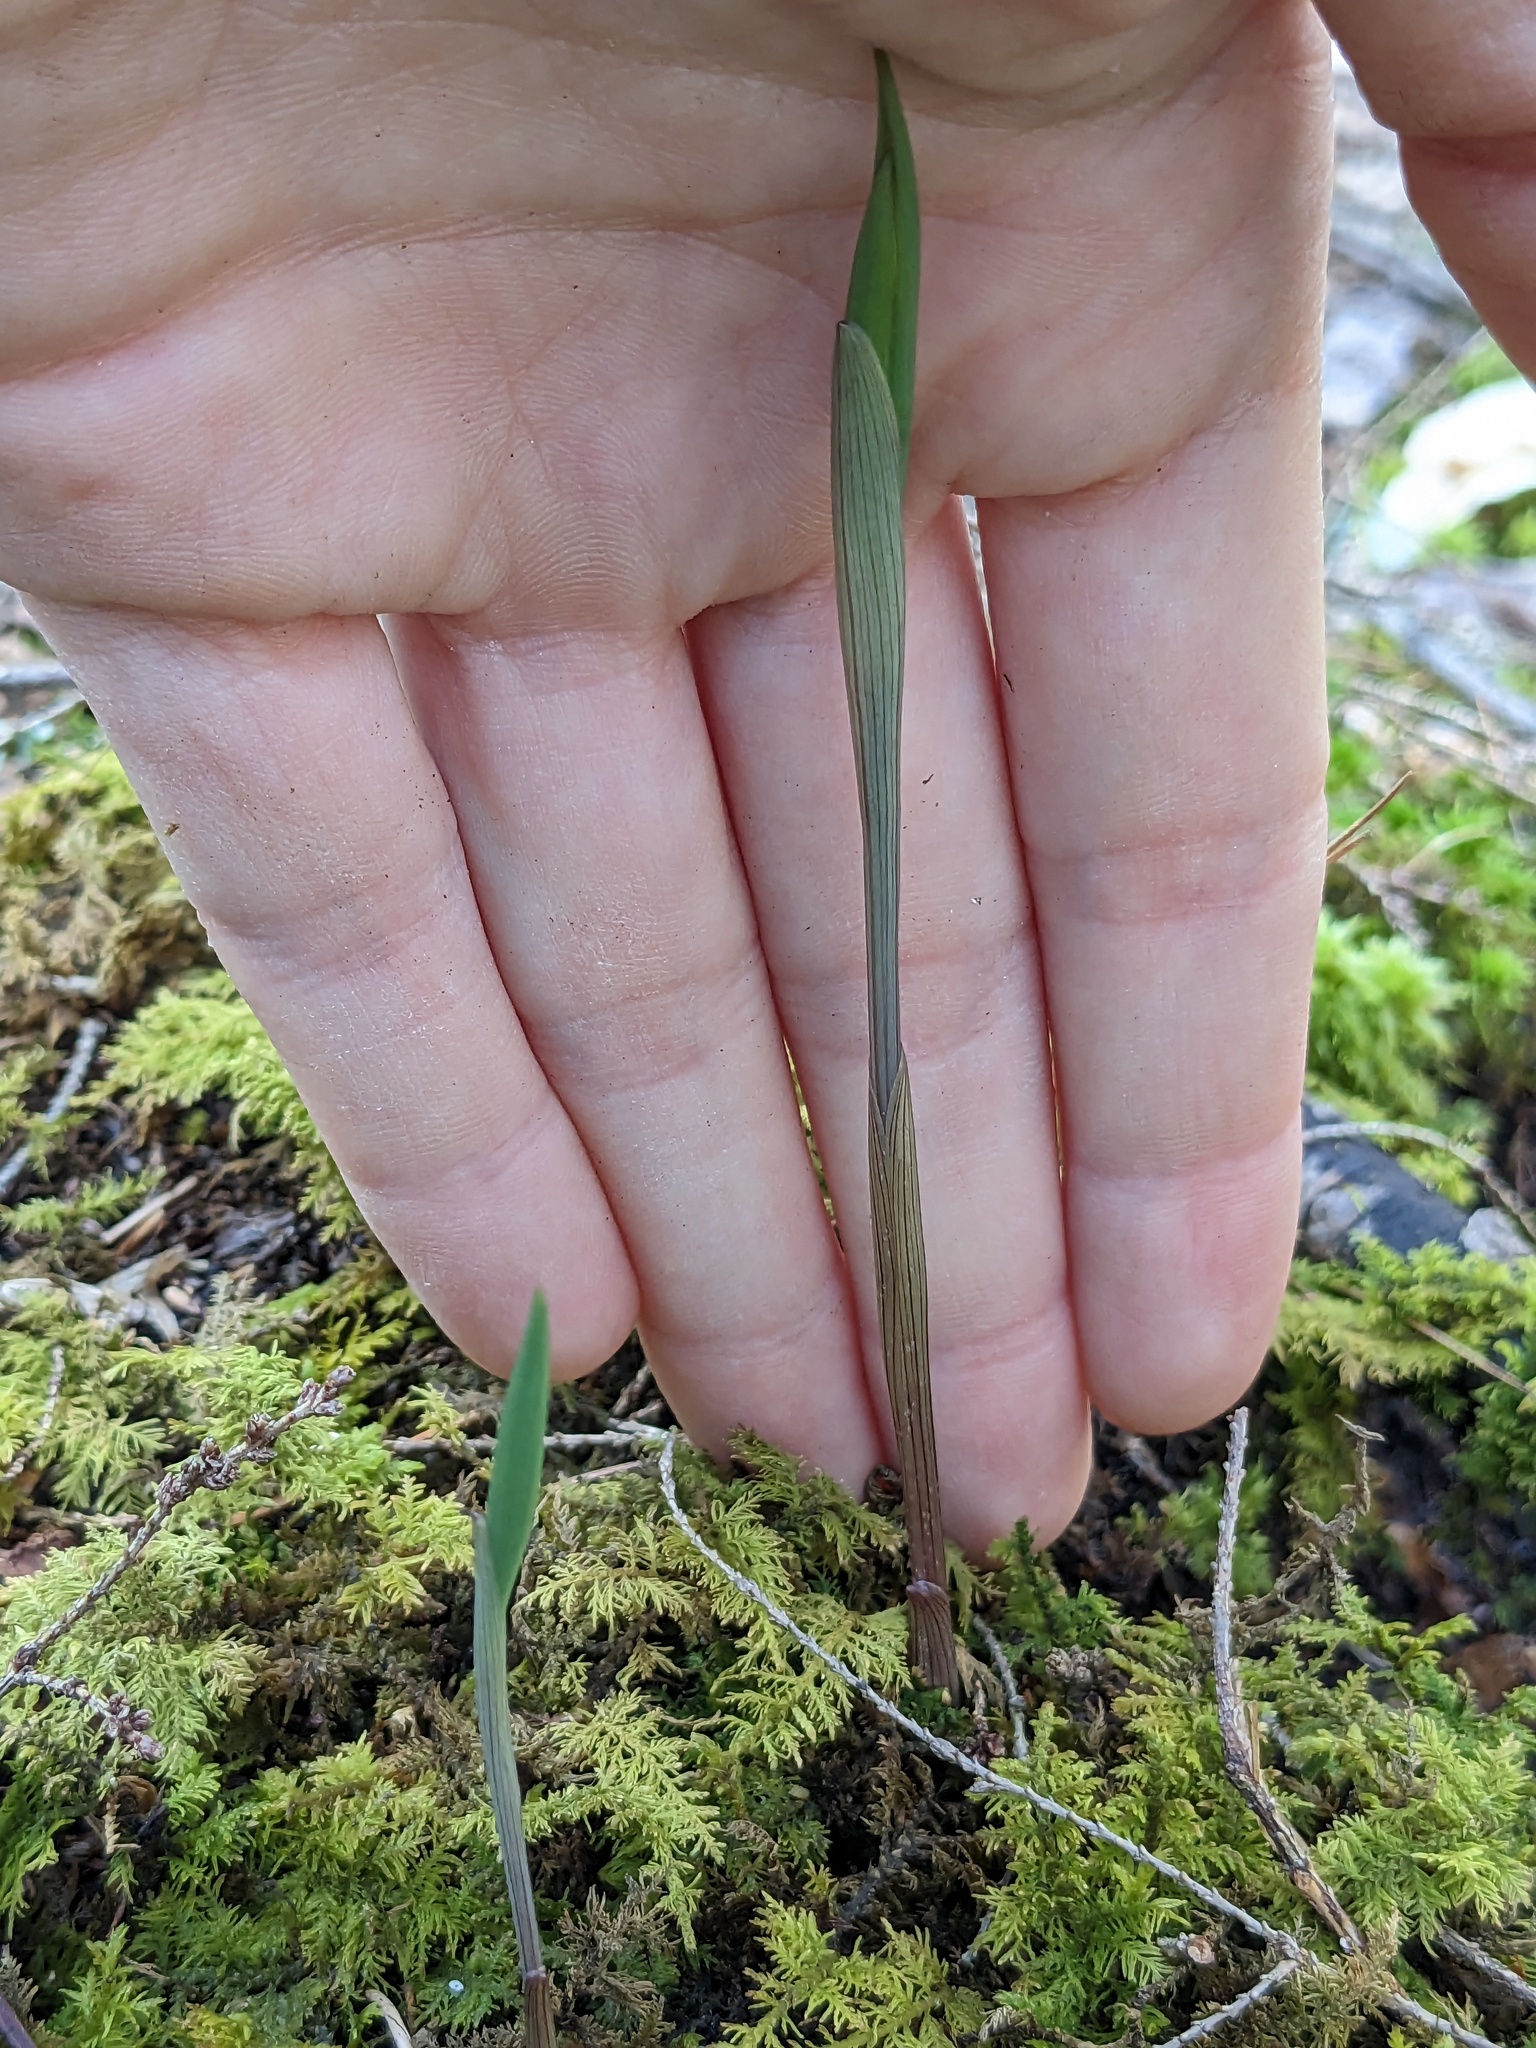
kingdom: Plantae
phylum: Tracheophyta
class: Liliopsida
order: Liliales
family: Colchicaceae
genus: Uvularia
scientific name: Uvularia sessilifolia
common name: Straw-lily
